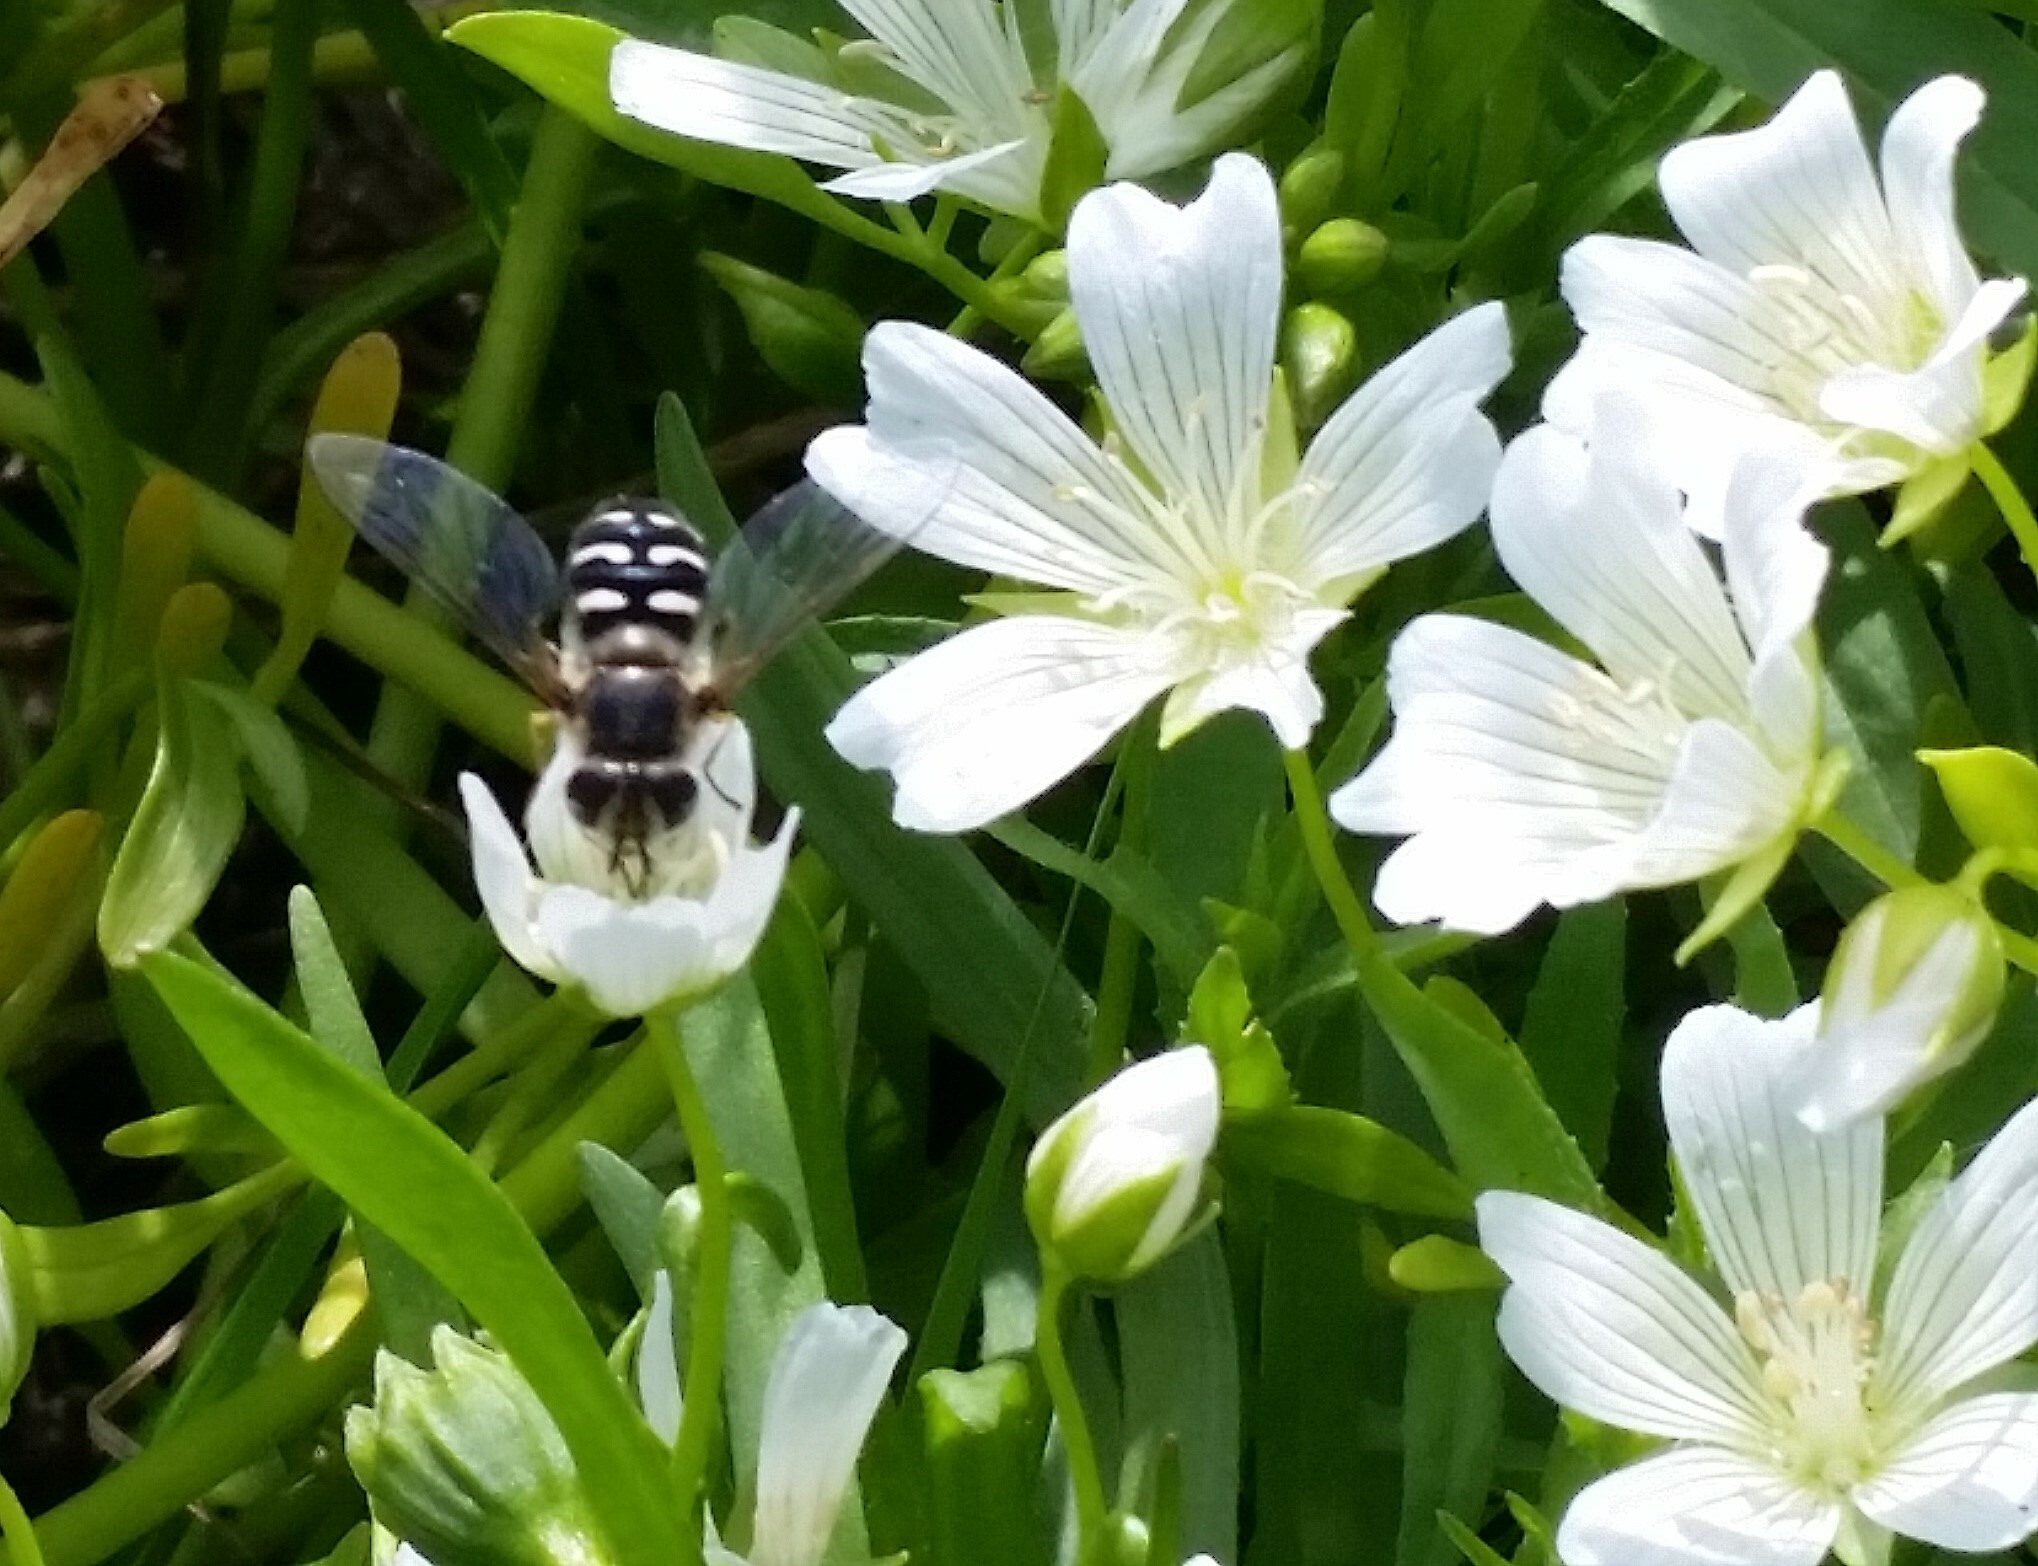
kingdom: Animalia
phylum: Arthropoda
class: Insecta
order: Diptera
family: Syrphidae
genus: Scaeva
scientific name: Scaeva affinis
